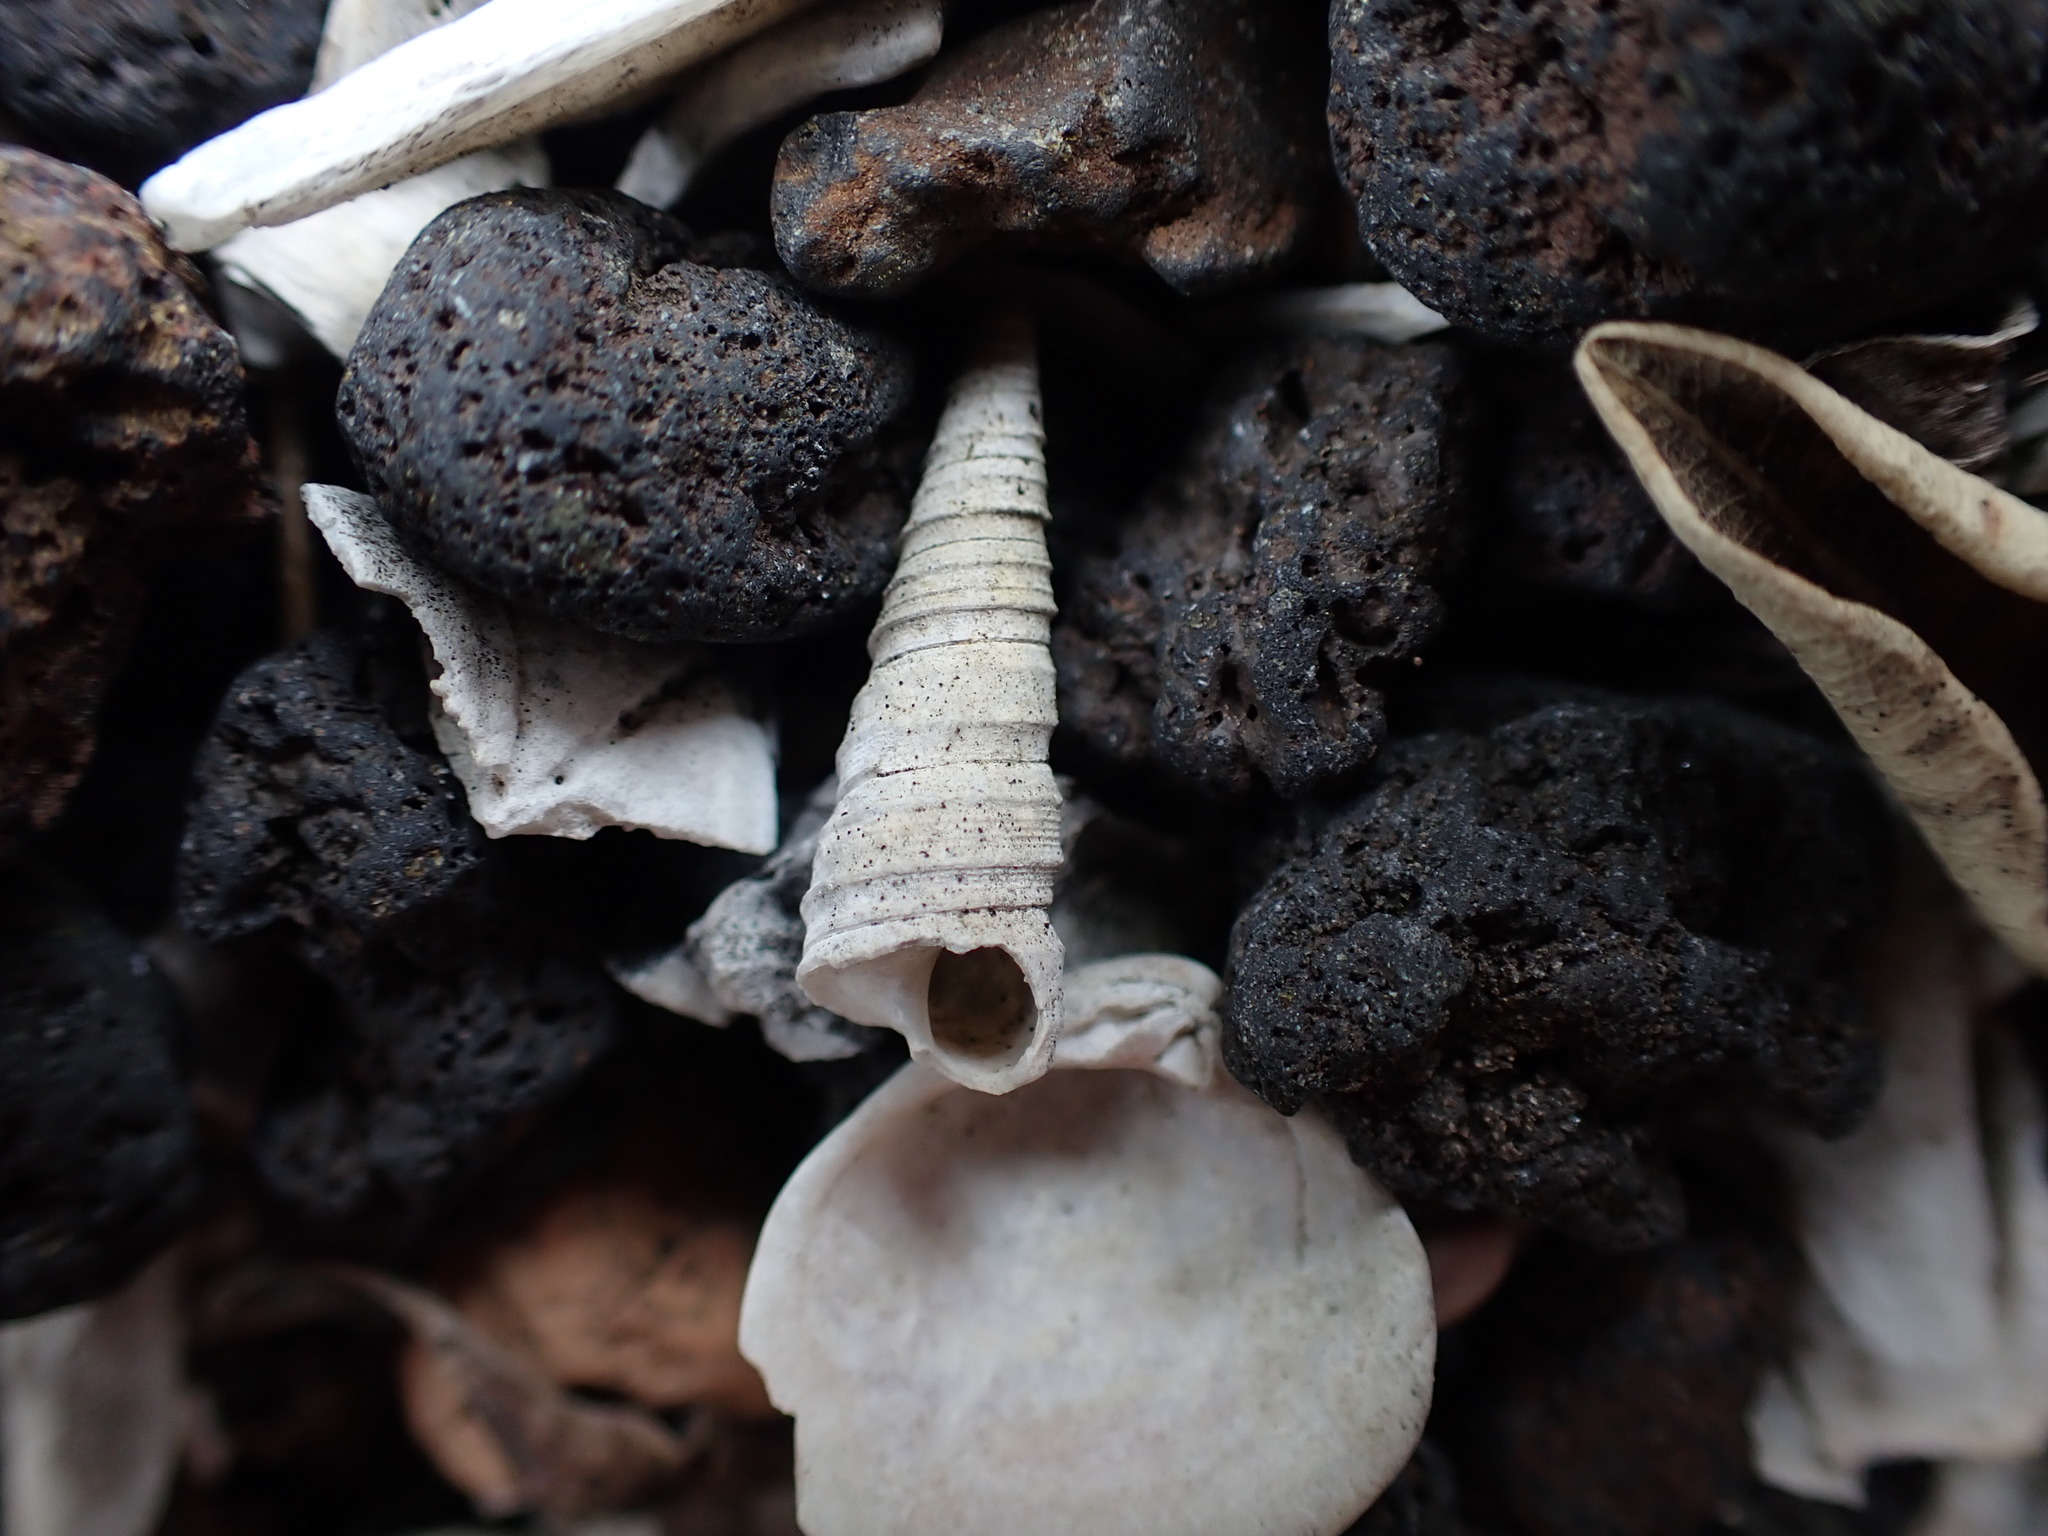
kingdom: Animalia
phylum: Mollusca
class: Gastropoda
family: Turritellidae
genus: Stiracolpus
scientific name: Stiracolpus pagoda
